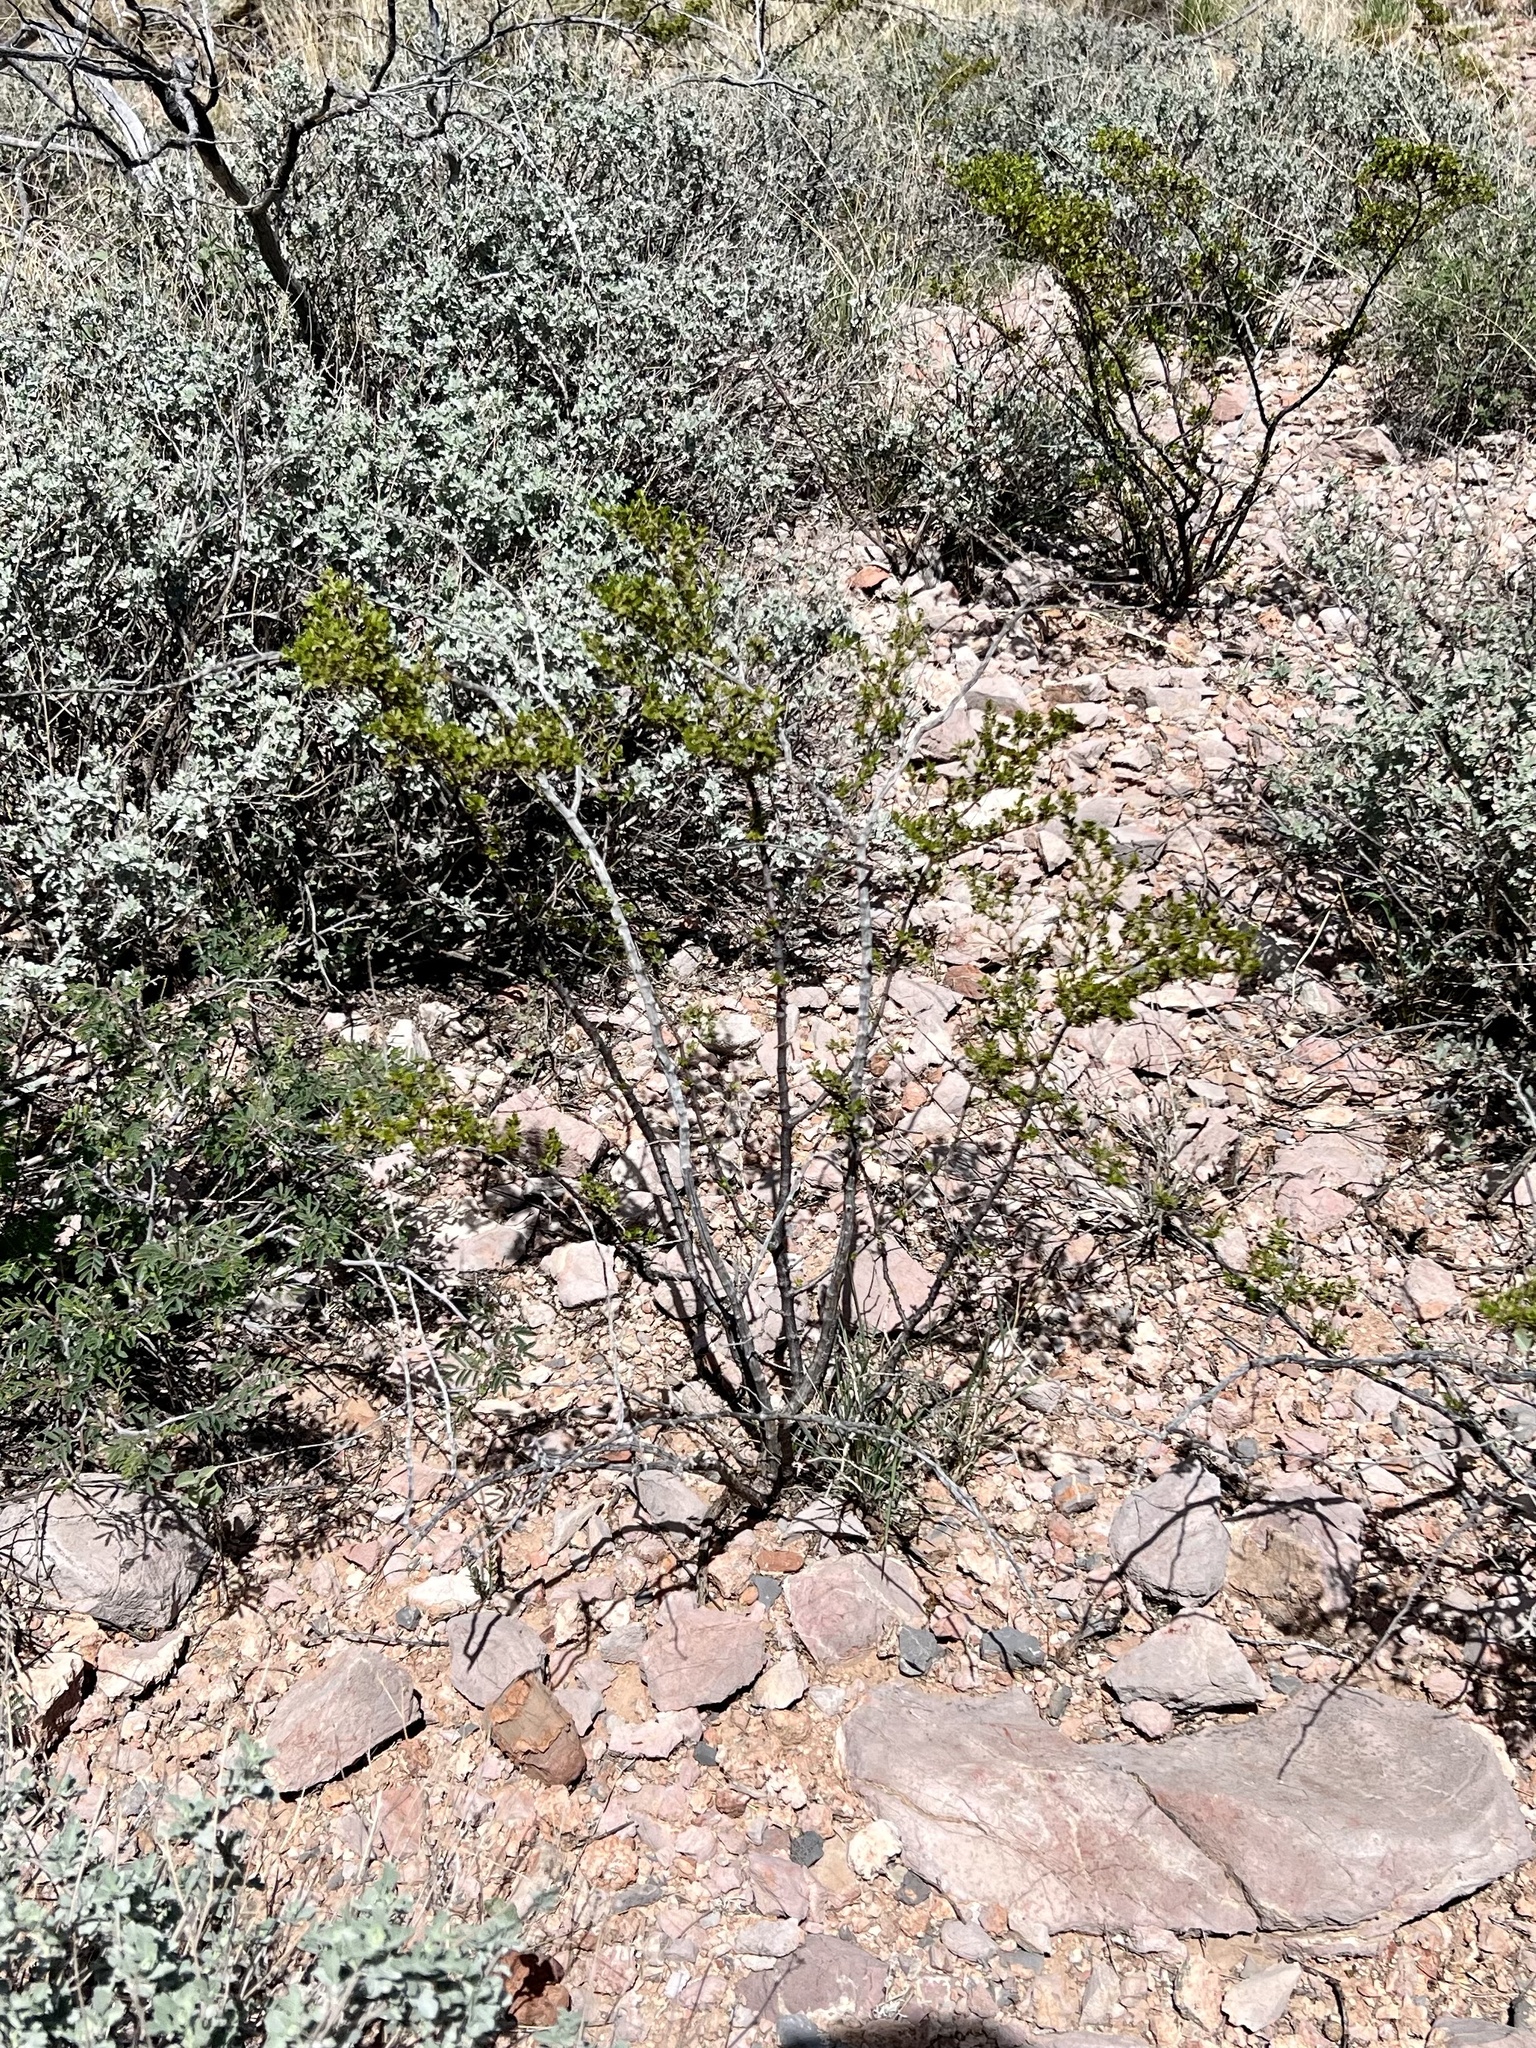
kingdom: Plantae
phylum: Tracheophyta
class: Magnoliopsida
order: Zygophyllales
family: Zygophyllaceae
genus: Larrea
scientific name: Larrea tridentata
